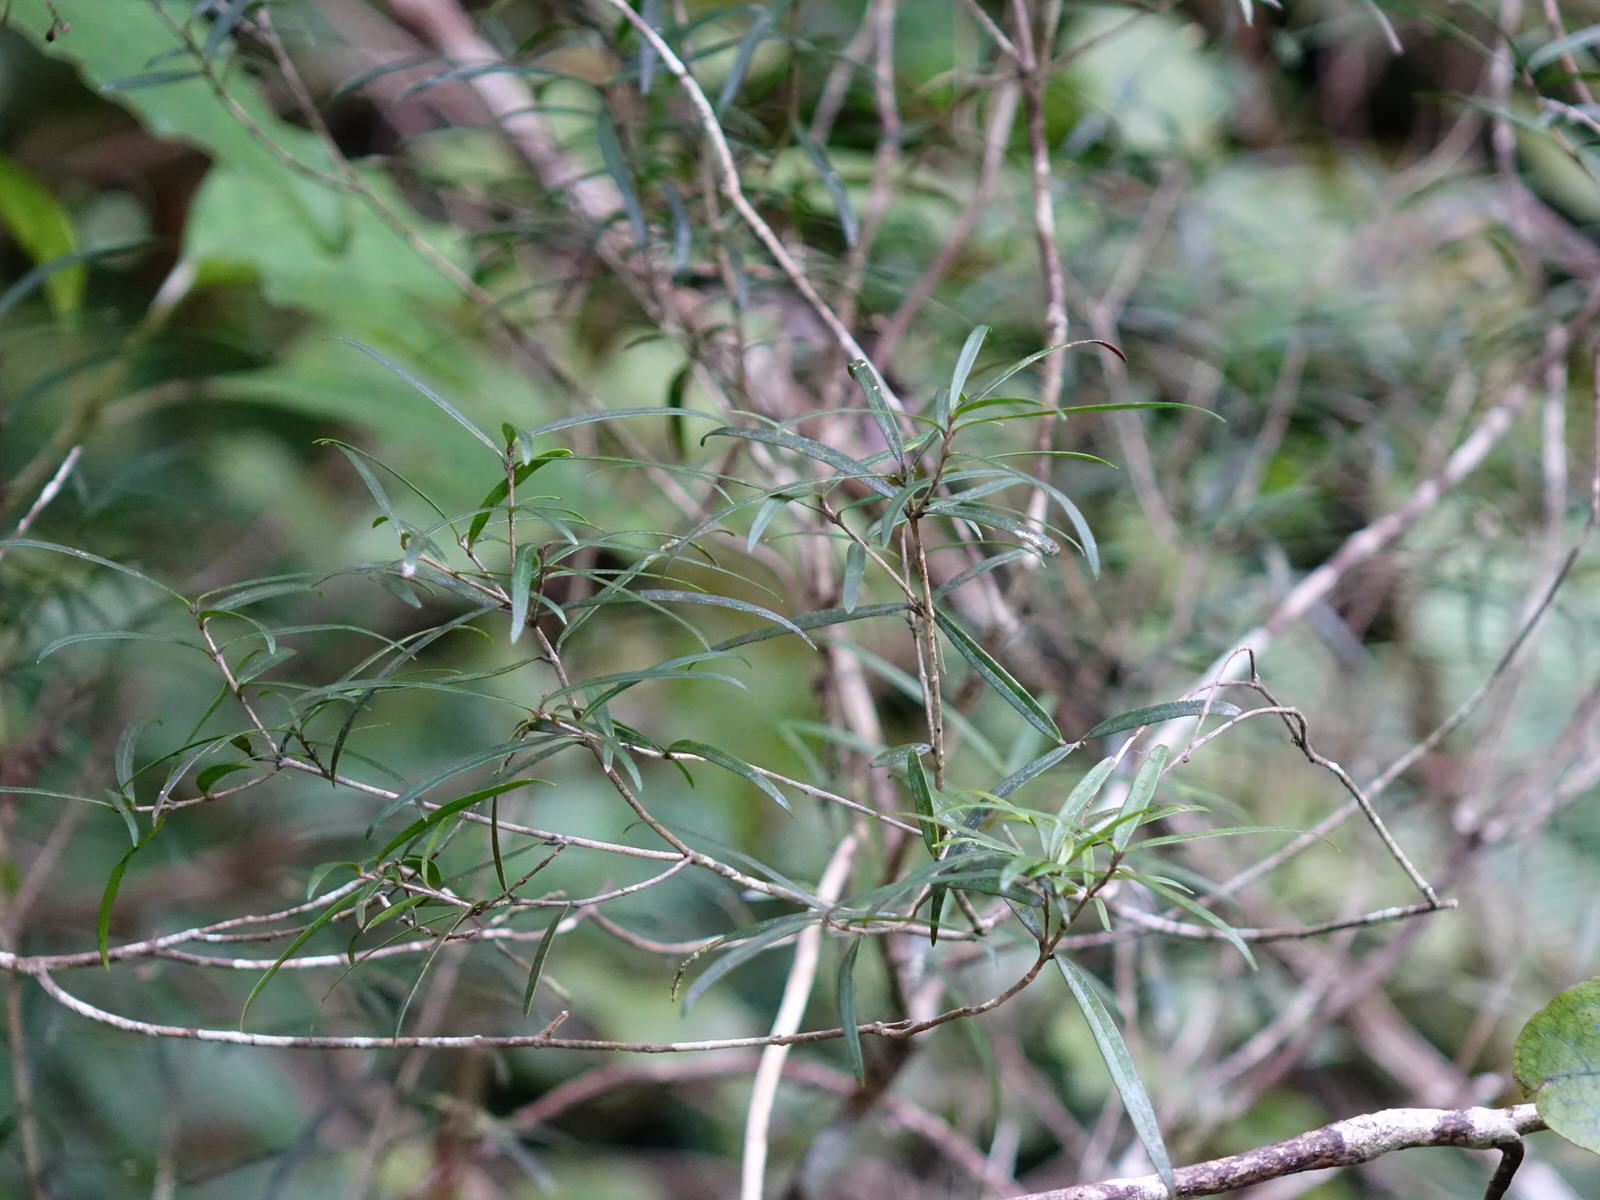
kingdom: Plantae
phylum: Tracheophyta
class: Magnoliopsida
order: Lamiales
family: Oleaceae
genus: Nestegis
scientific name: Nestegis montana
